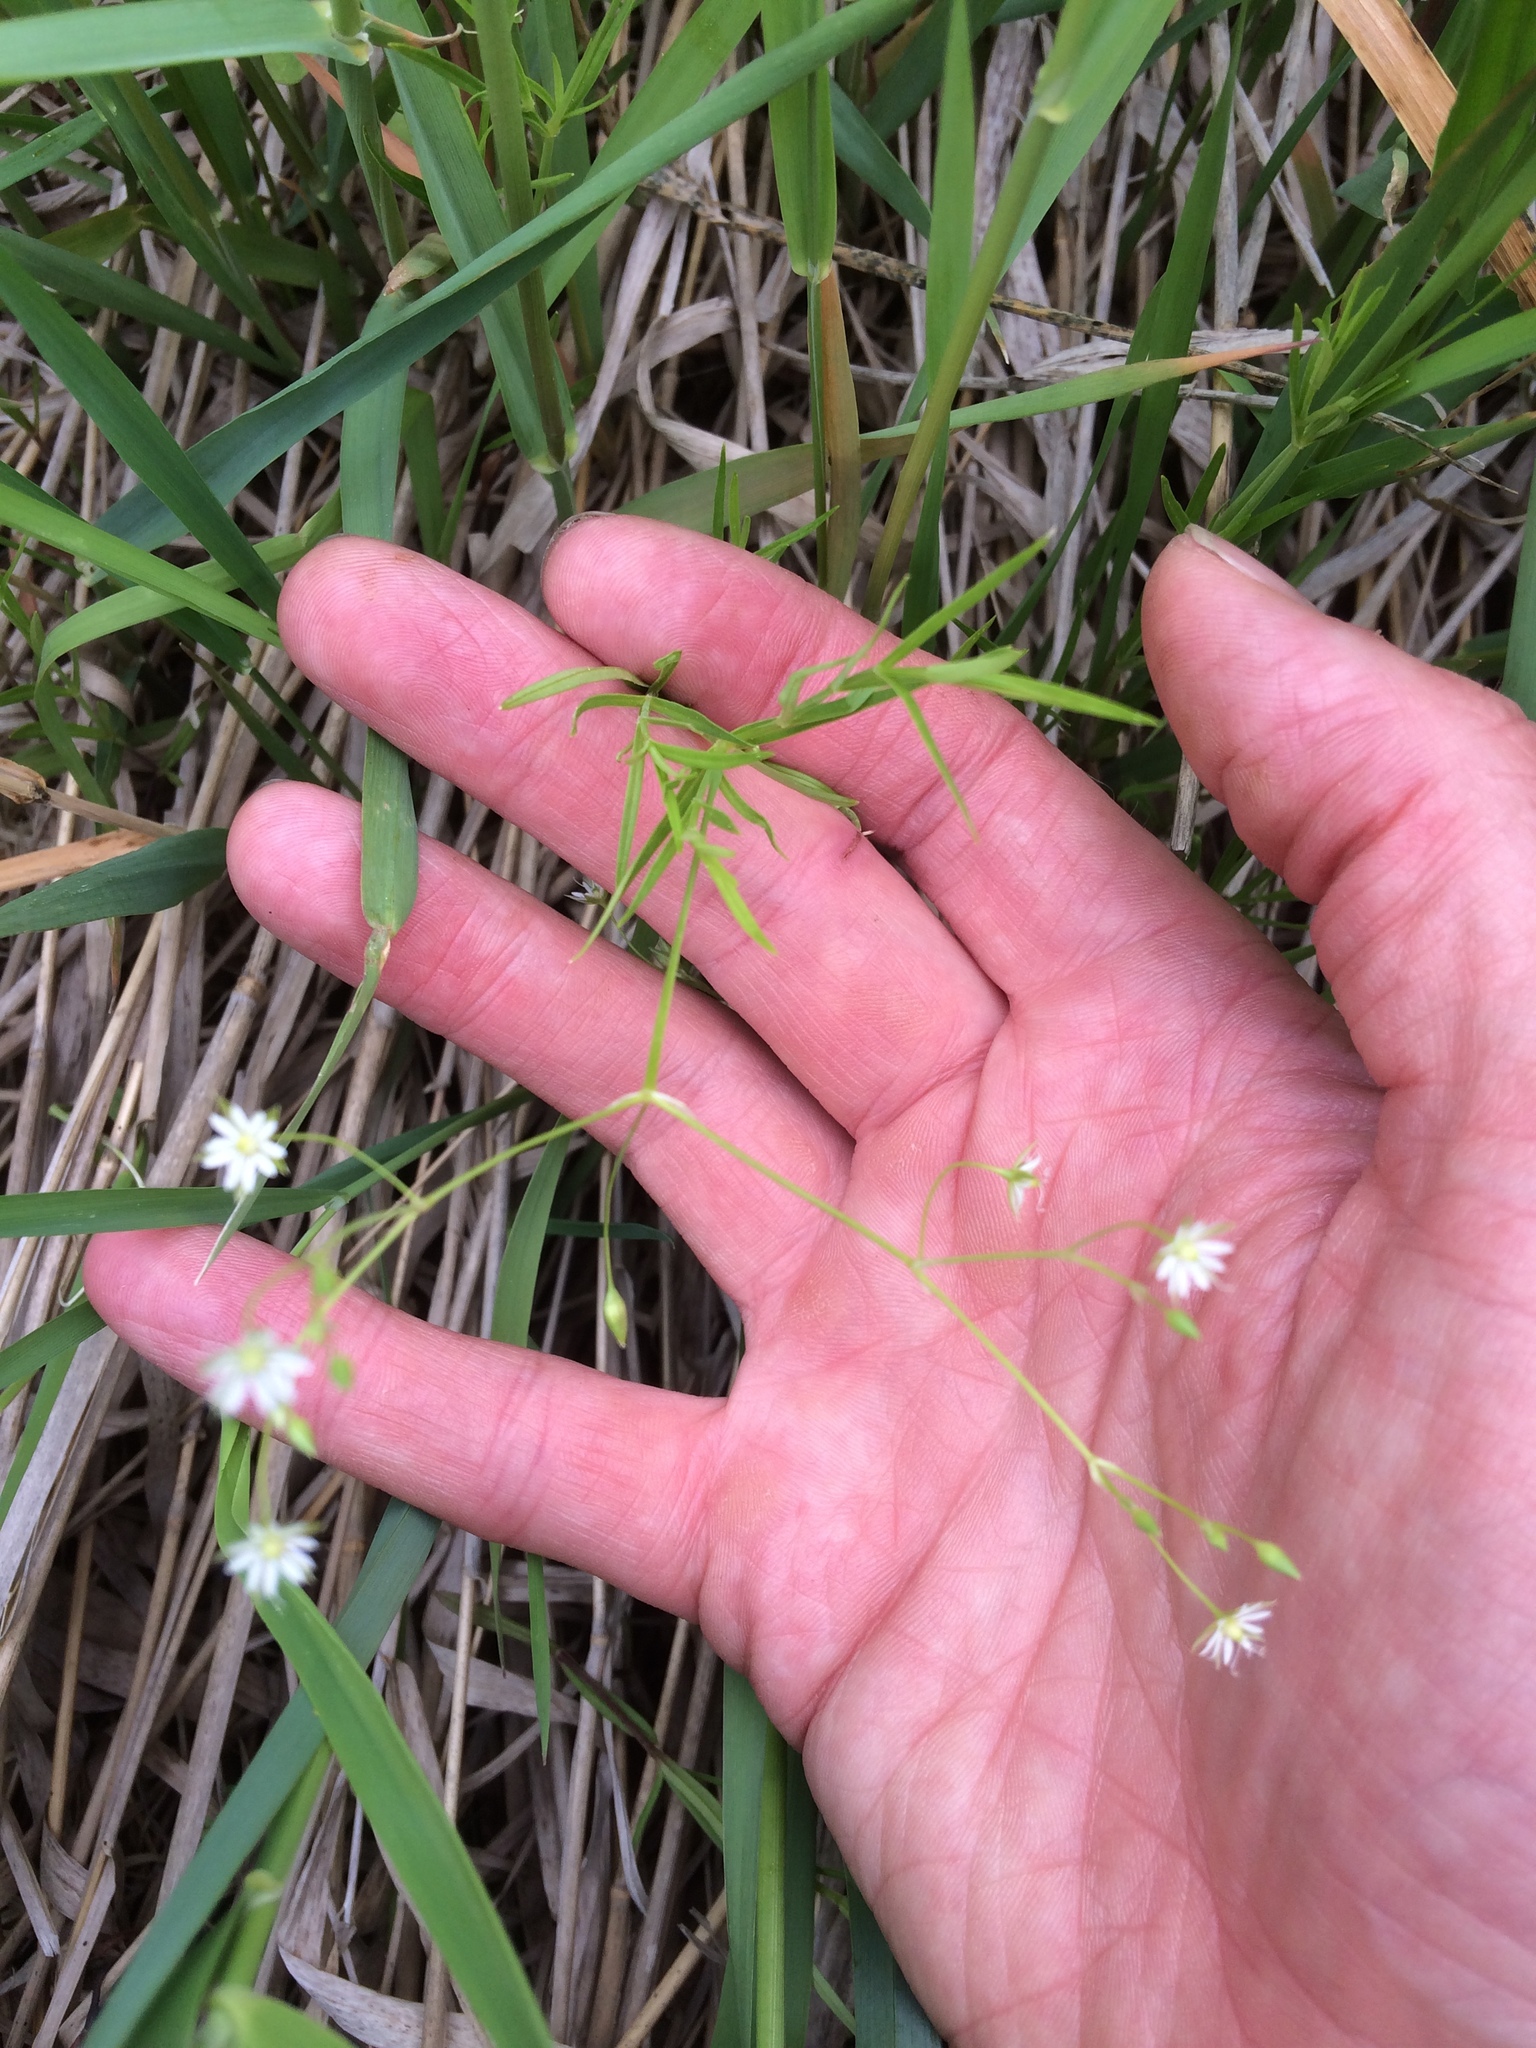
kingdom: Plantae
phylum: Tracheophyta
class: Magnoliopsida
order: Caryophyllales
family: Caryophyllaceae
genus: Stellaria
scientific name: Stellaria graminea
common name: Grass-like starwort
